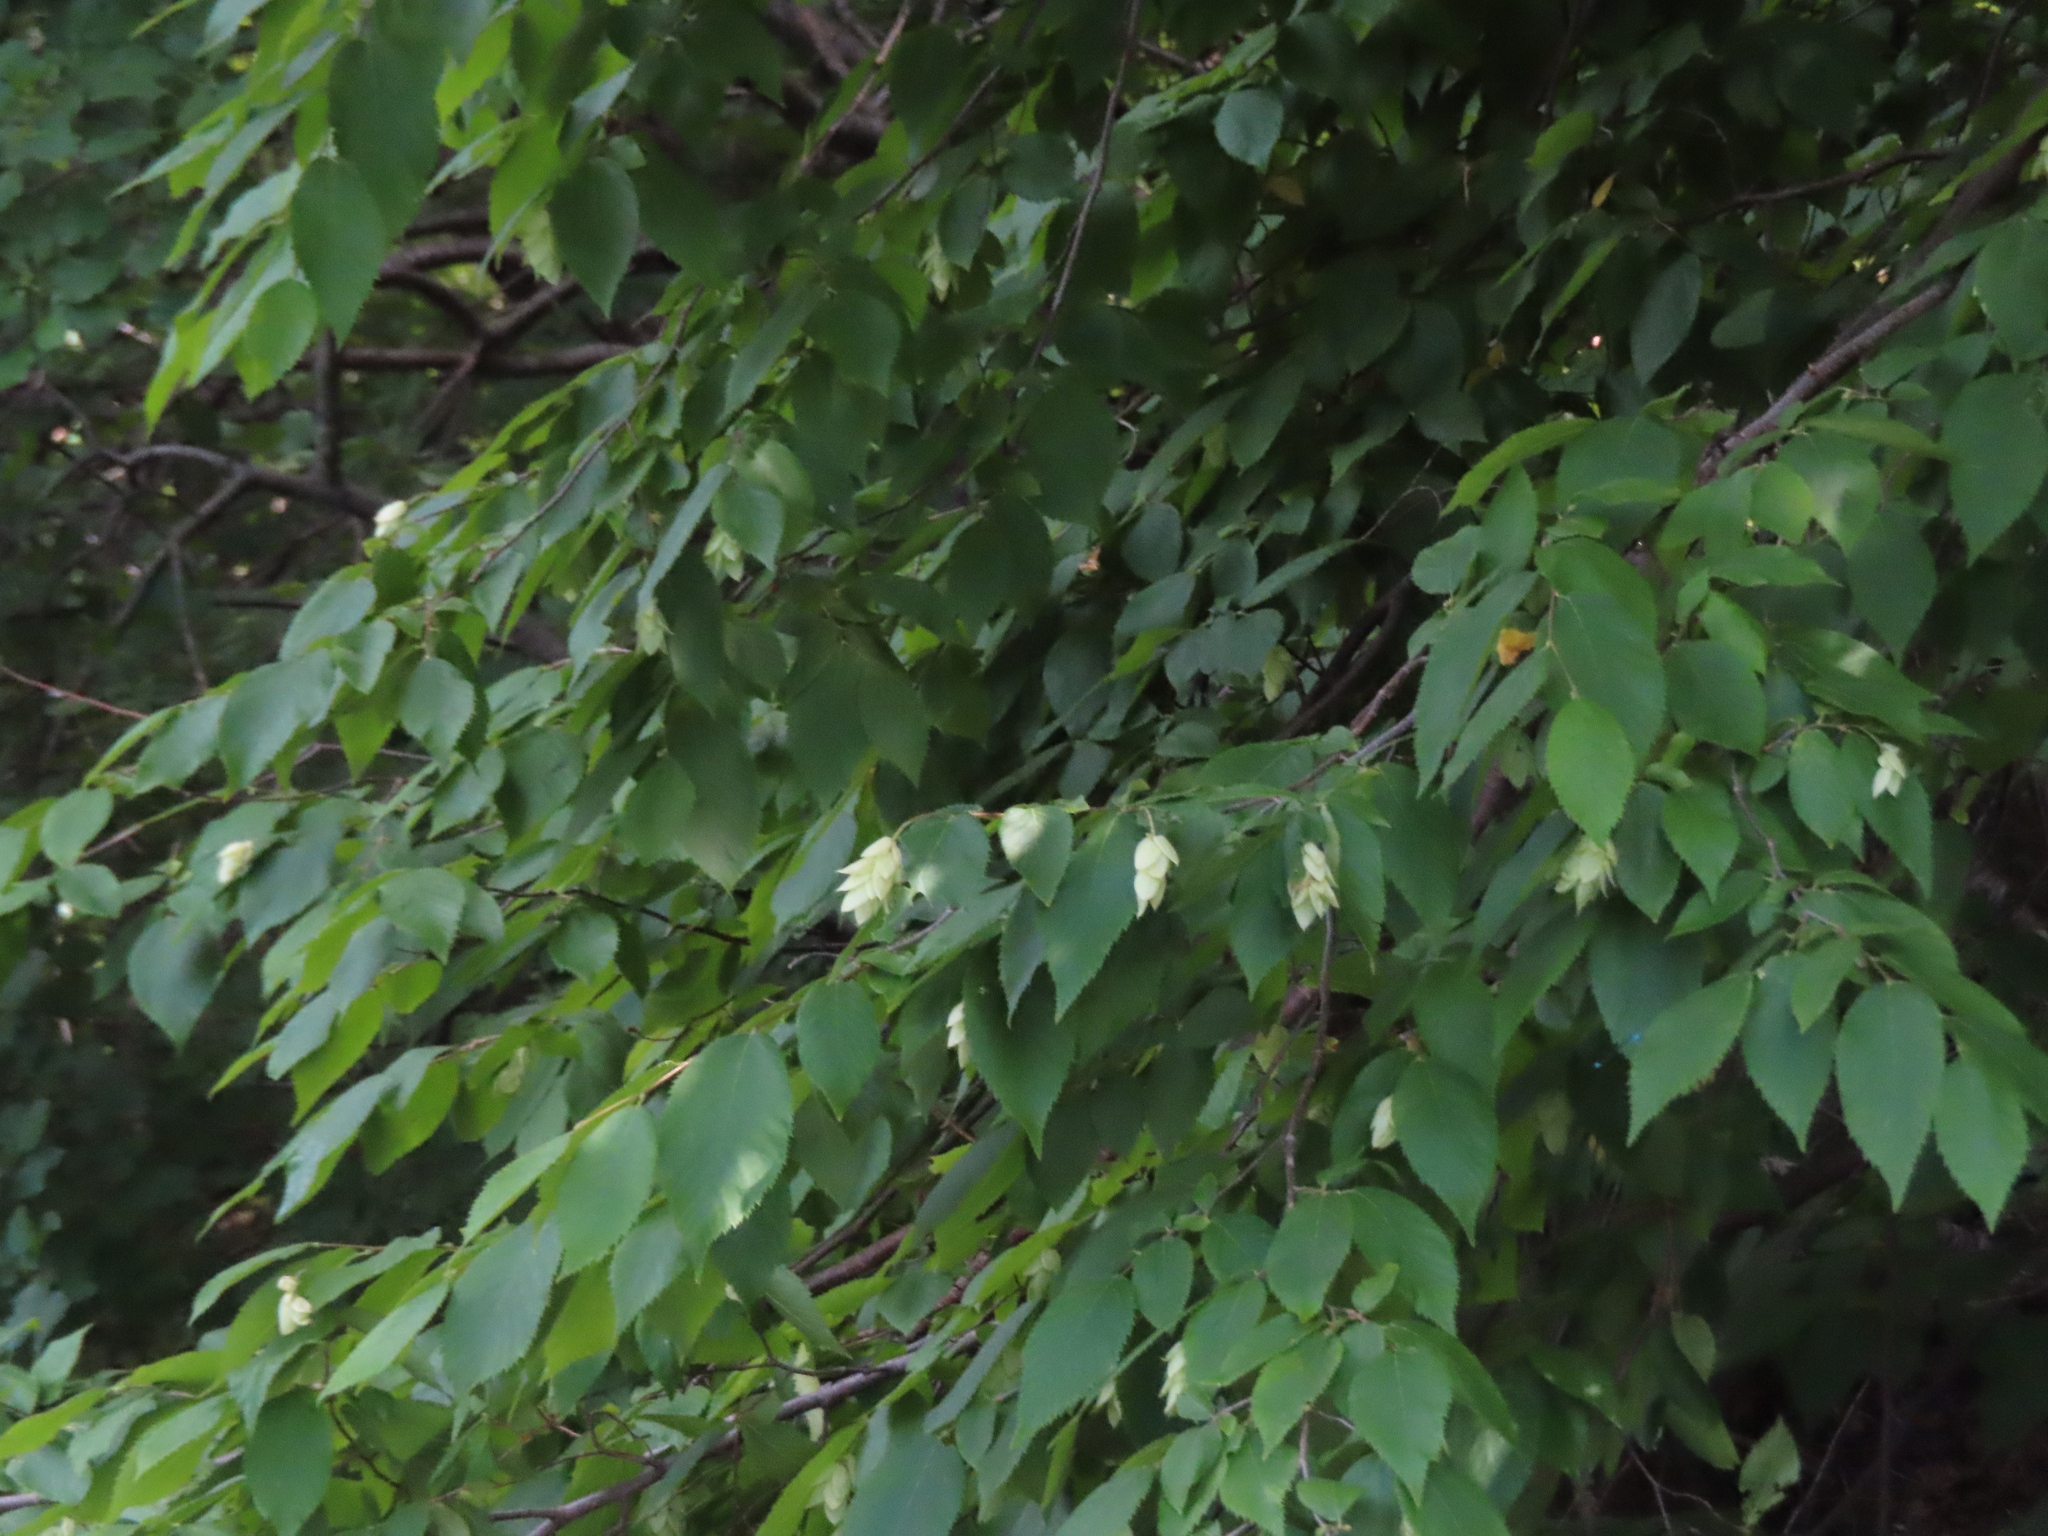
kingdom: Plantae
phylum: Tracheophyta
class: Magnoliopsida
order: Fagales
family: Betulaceae
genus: Ostrya
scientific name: Ostrya virginiana
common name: Ironwood
